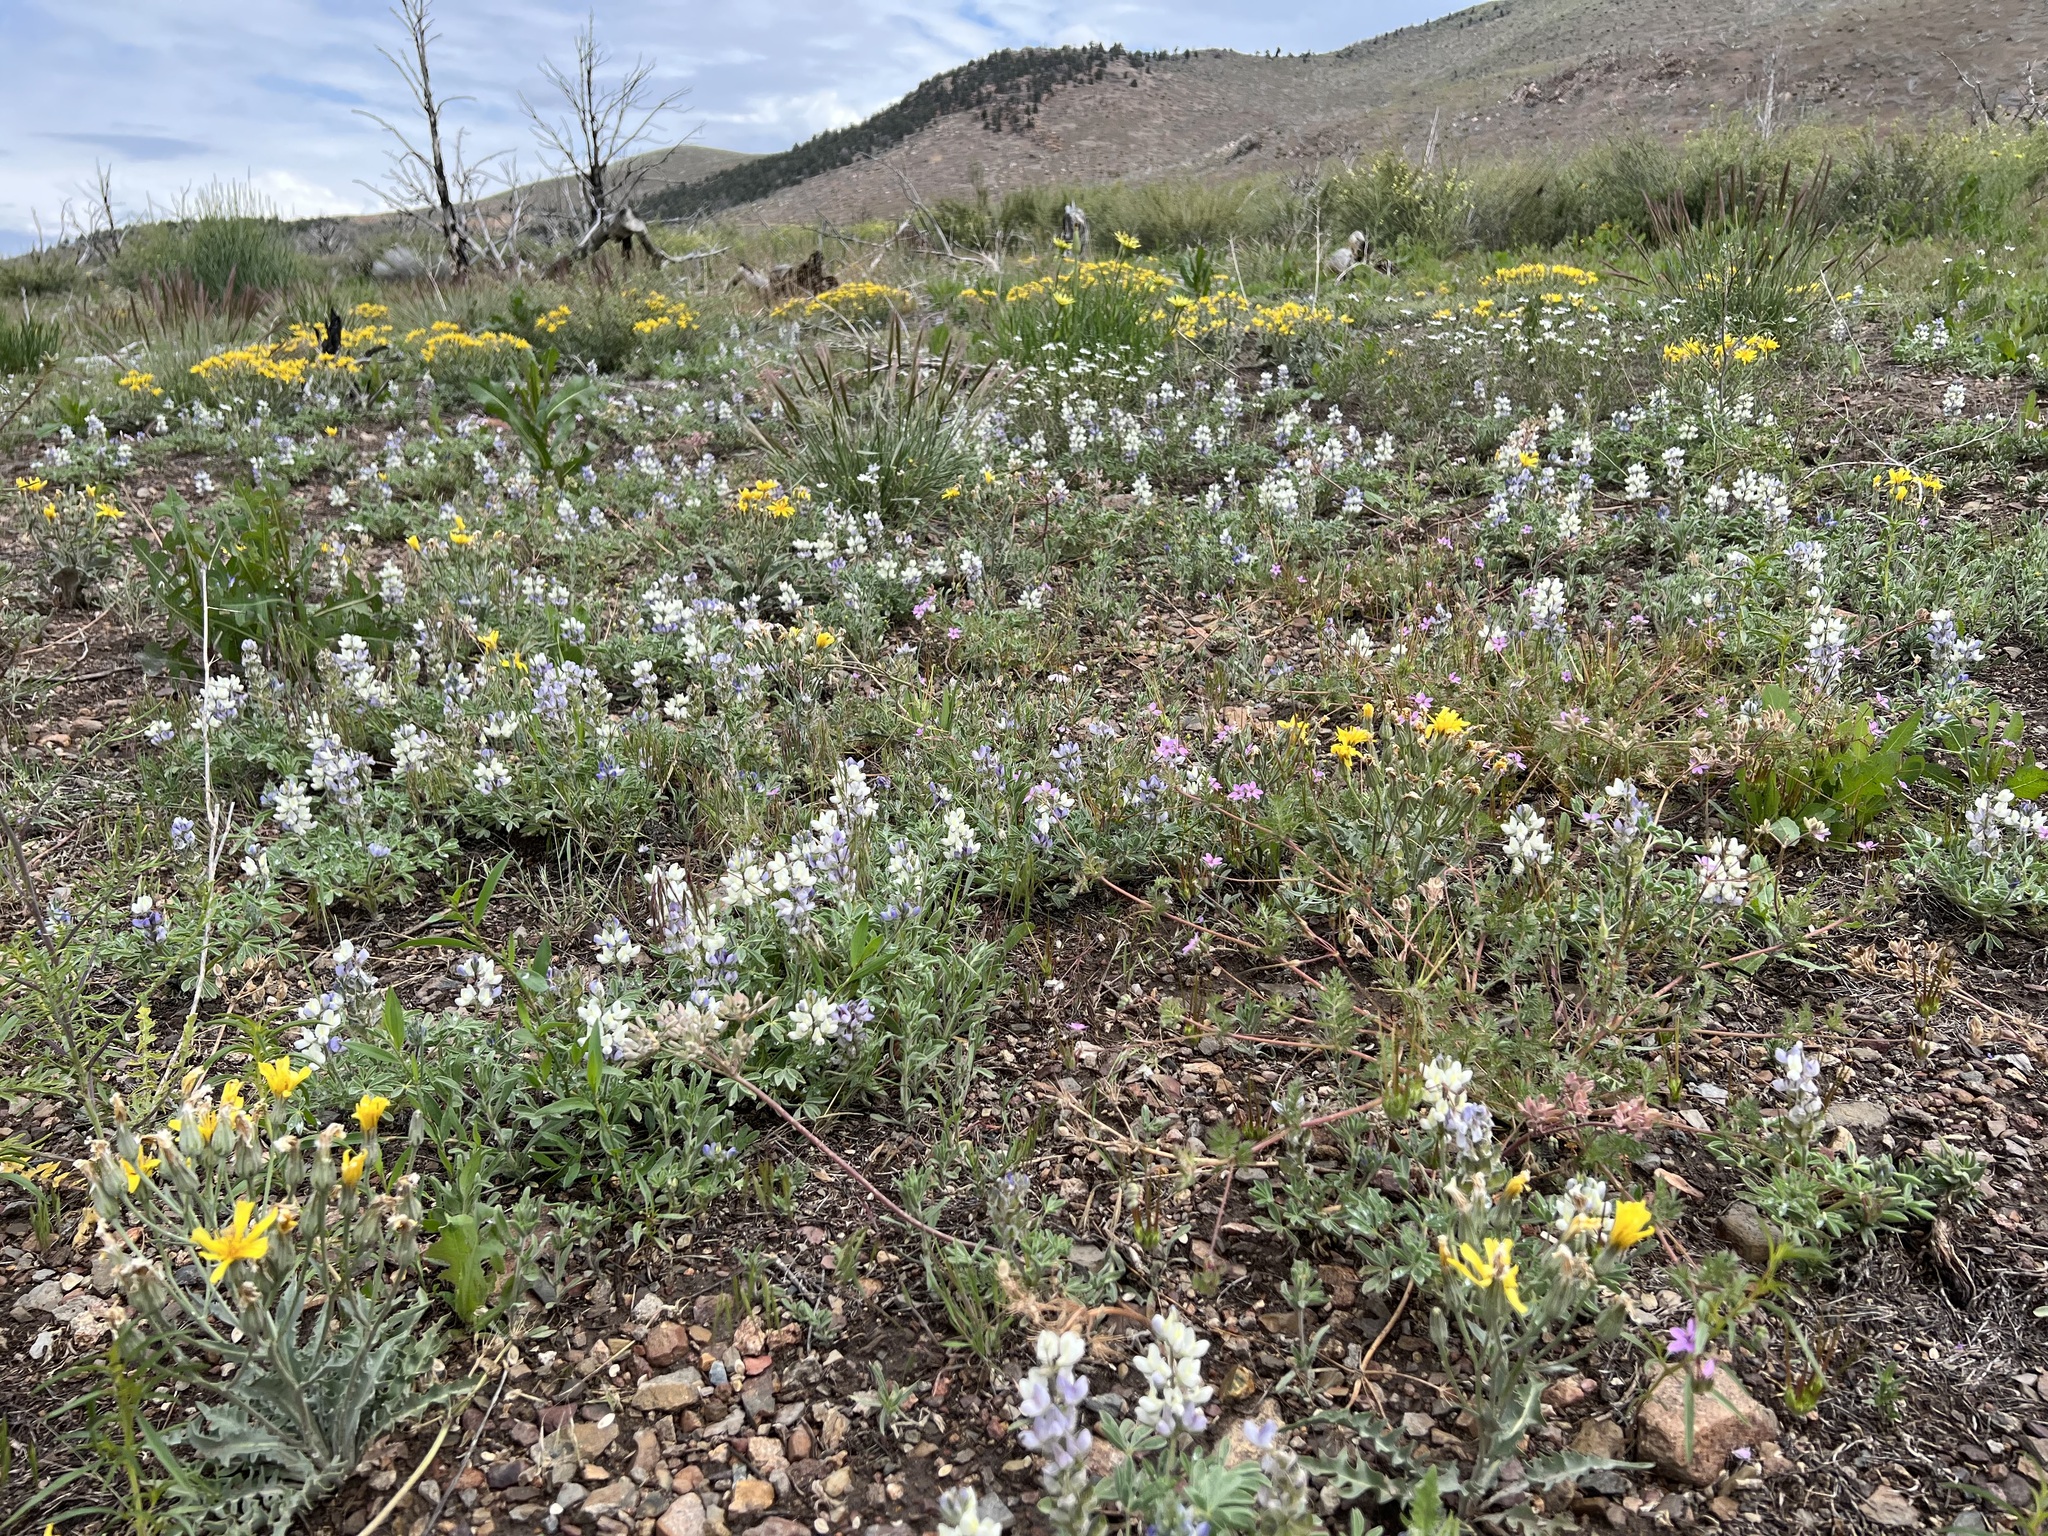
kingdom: Plantae
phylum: Tracheophyta
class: Magnoliopsida
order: Fabales
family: Fabaceae
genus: Lupinus
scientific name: Lupinus malacophyllus
